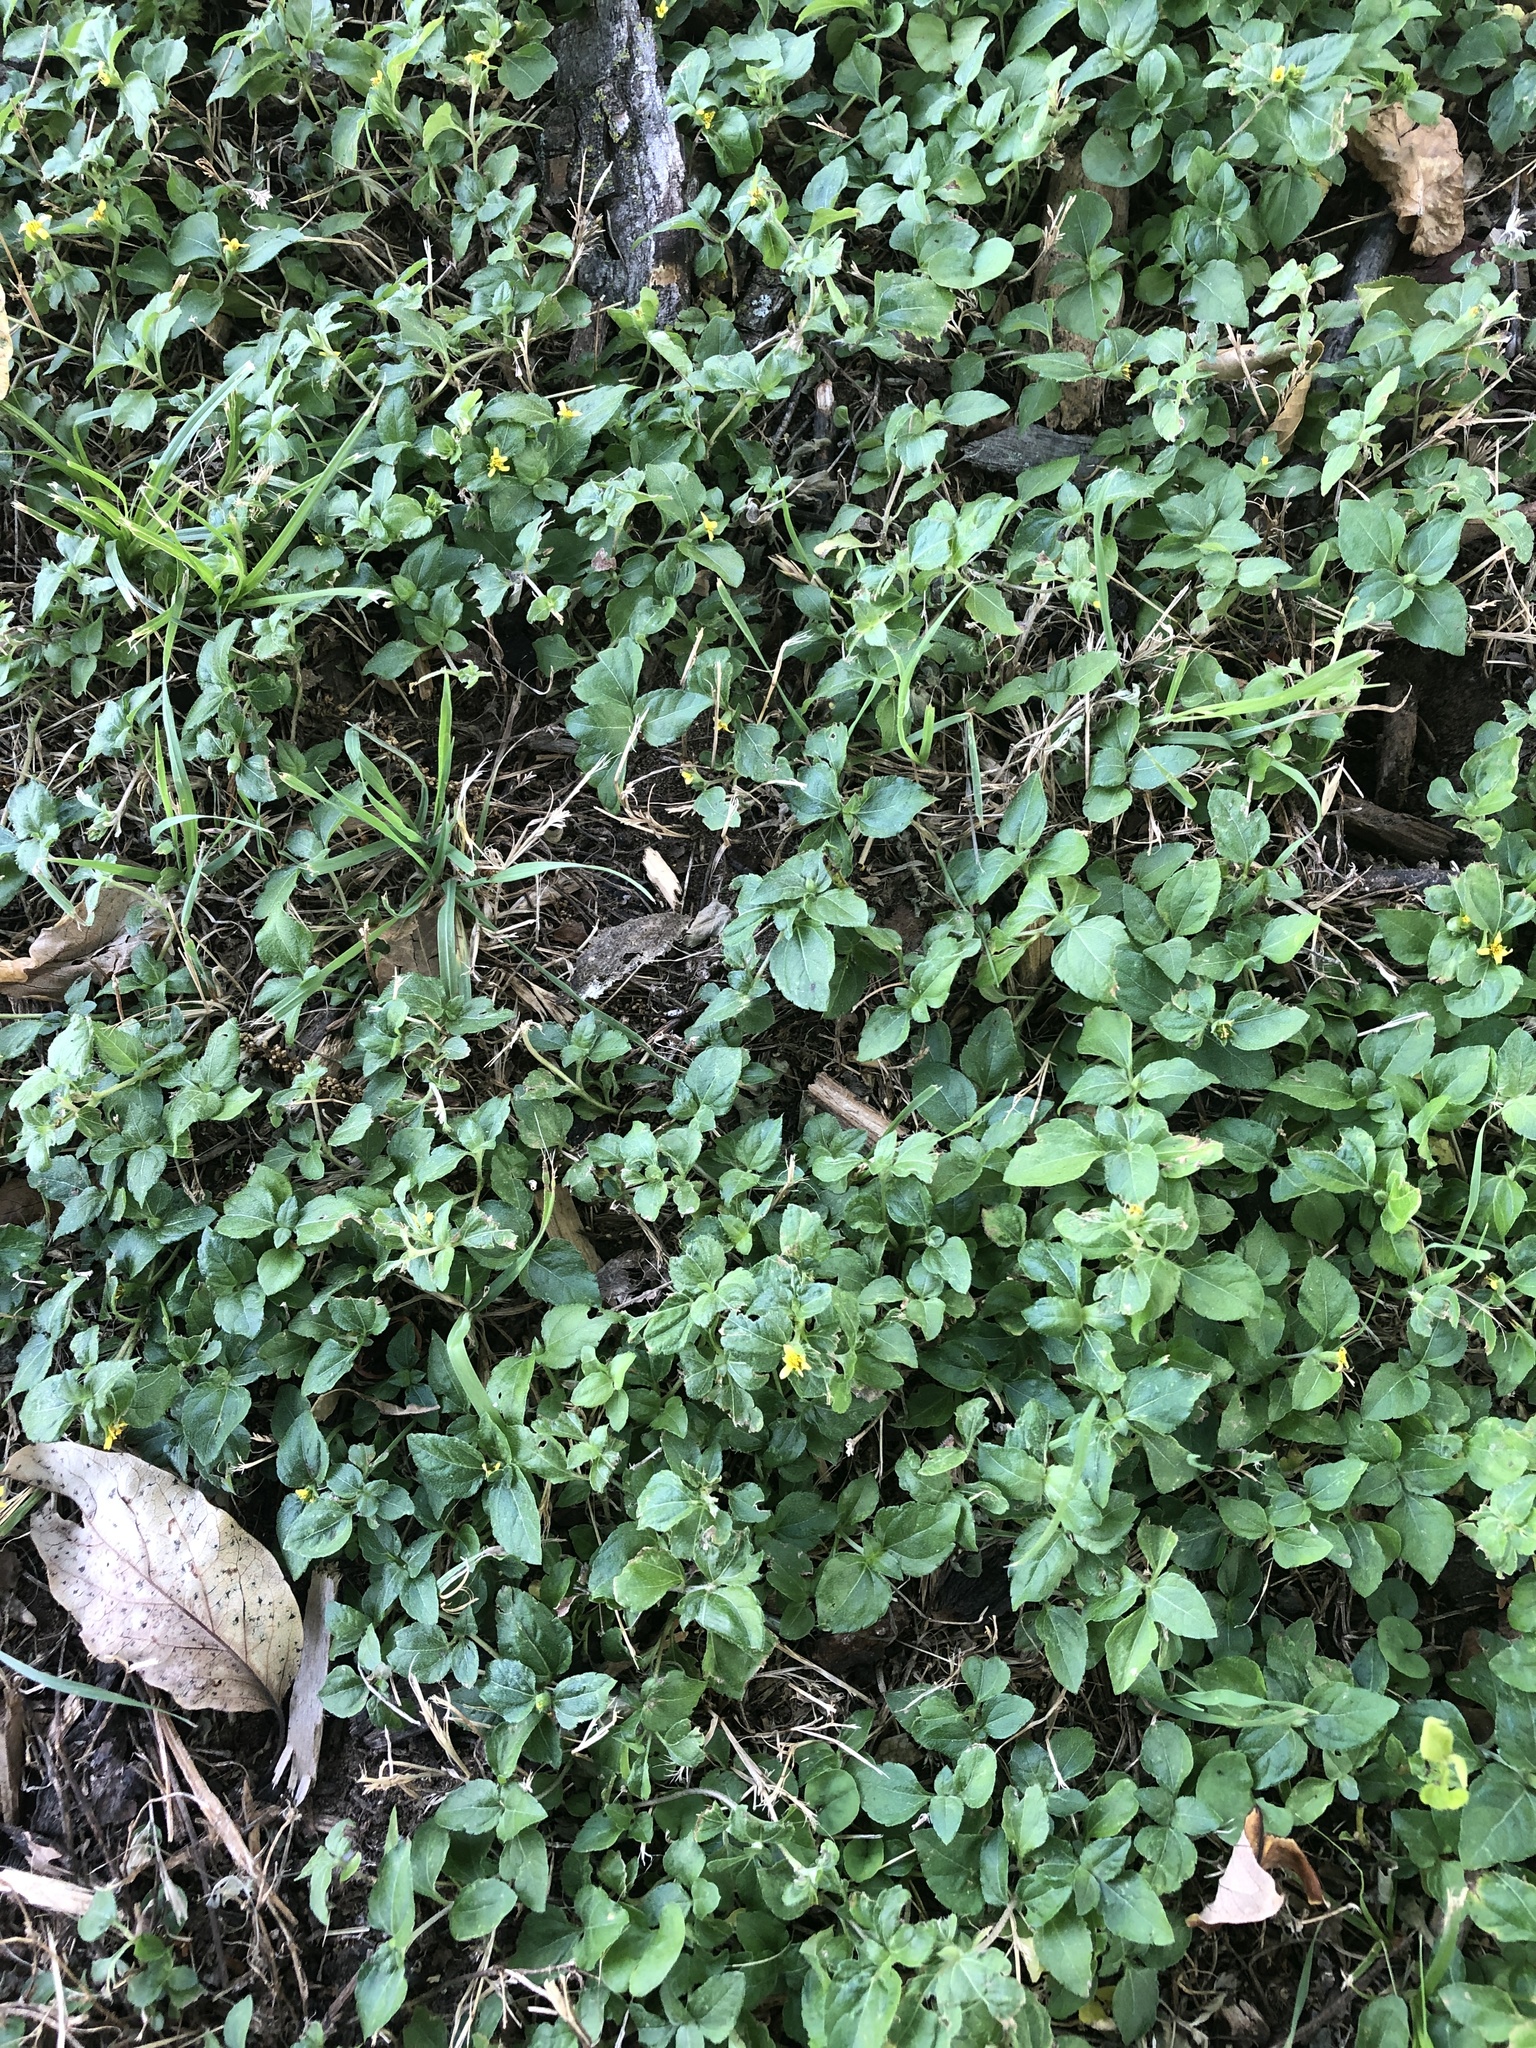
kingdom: Plantae
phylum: Tracheophyta
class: Magnoliopsida
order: Asterales
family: Asteraceae
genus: Calyptocarpus
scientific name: Calyptocarpus vialis
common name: Straggler daisy
